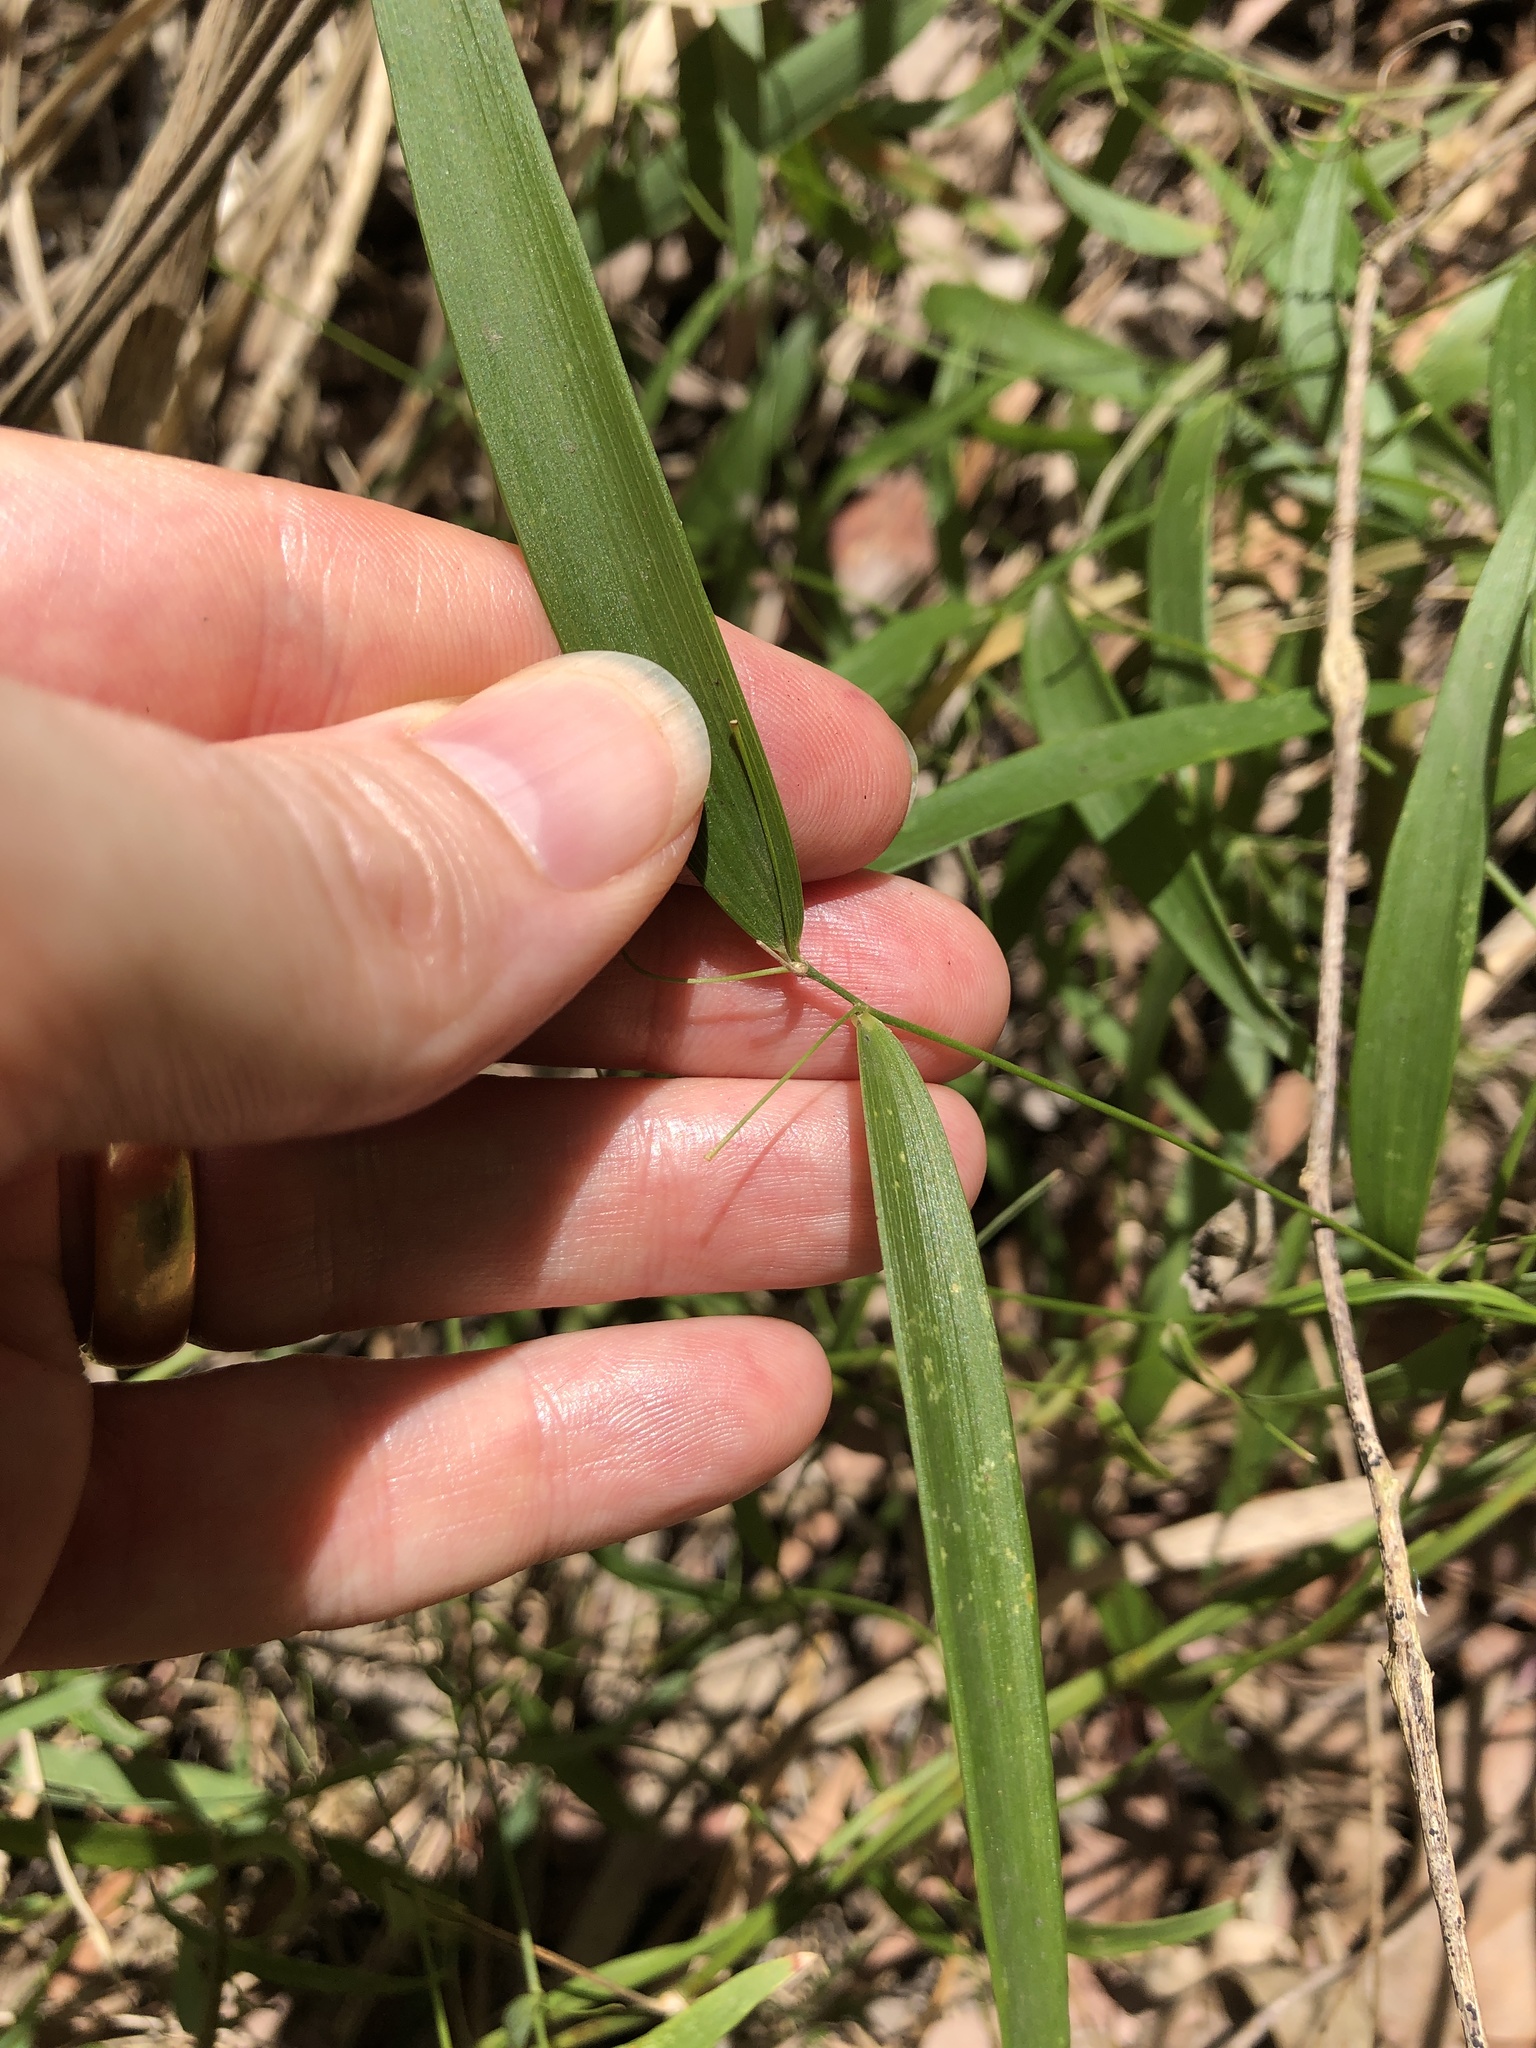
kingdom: Plantae
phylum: Tracheophyta
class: Liliopsida
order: Asparagales
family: Asparagaceae
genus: Eustrephus
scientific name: Eustrephus latifolius
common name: Orangevine
